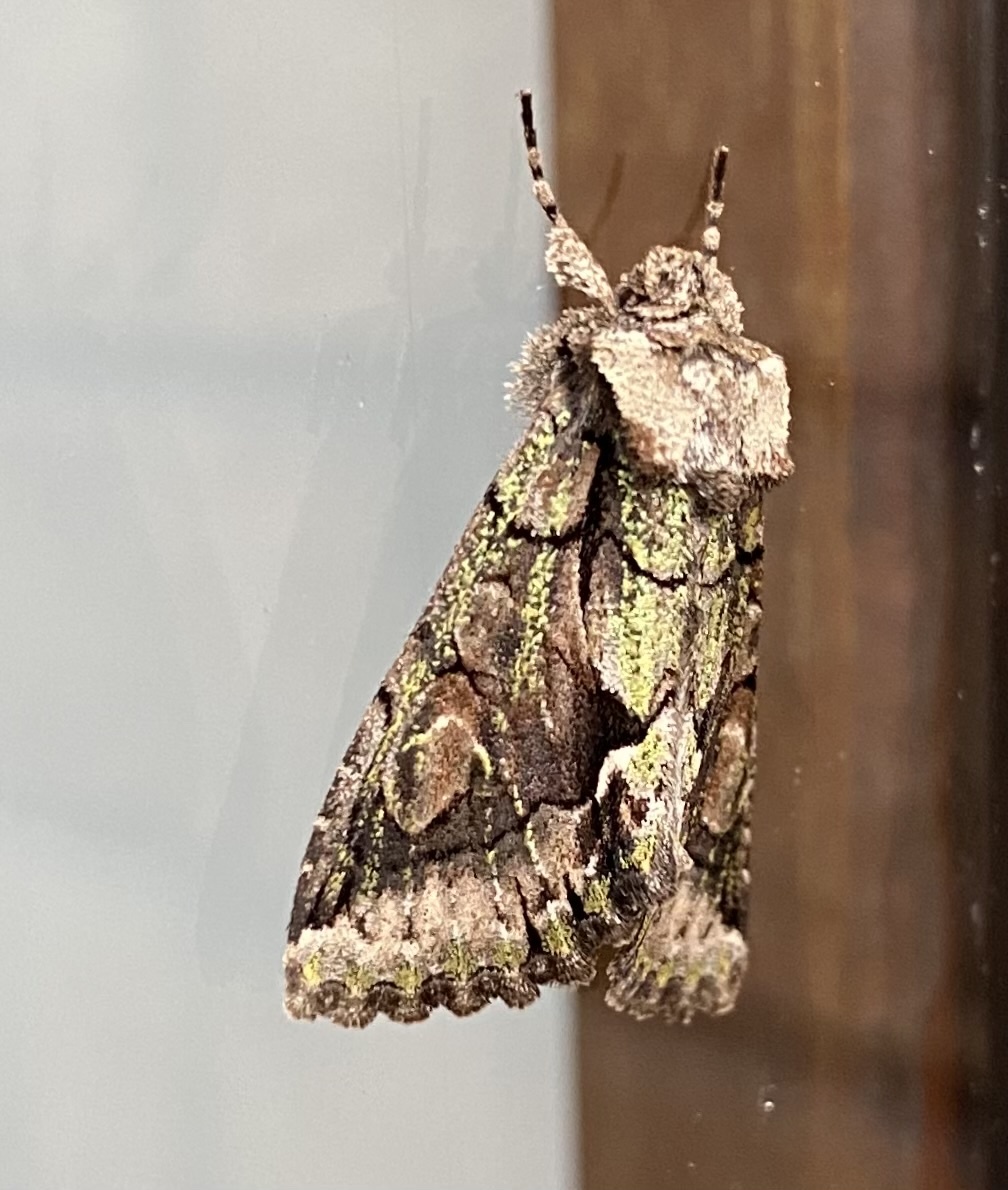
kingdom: Animalia
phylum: Arthropoda
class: Insecta
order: Lepidoptera
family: Noctuidae
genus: Allophyes
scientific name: Allophyes oxyacanthae
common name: Green-brindled crescent
